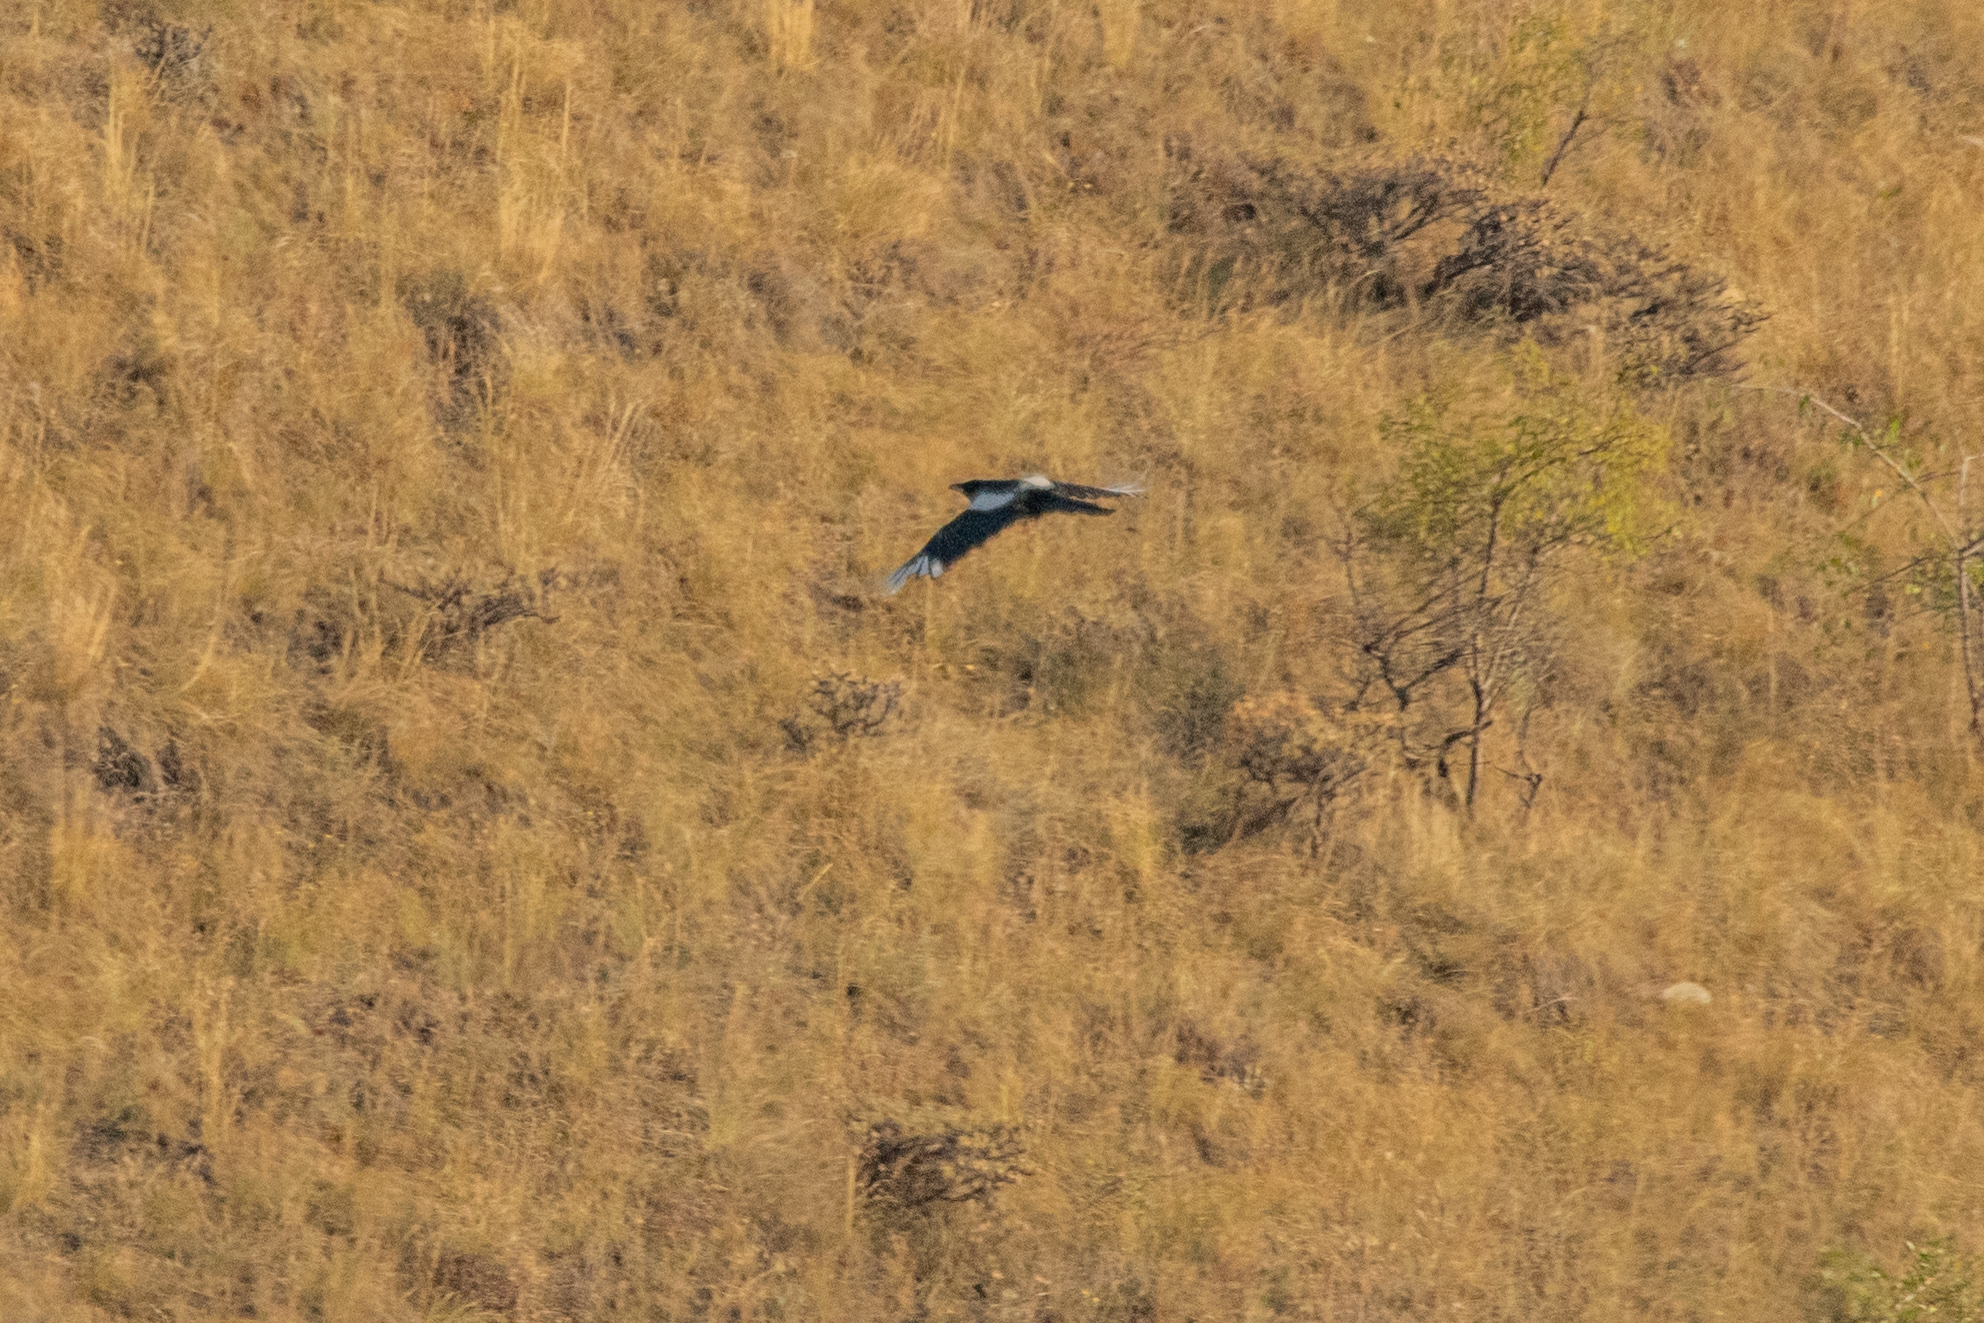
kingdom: Animalia
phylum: Chordata
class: Aves
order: Passeriformes
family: Corvidae
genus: Pica
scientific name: Pica pica
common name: Eurasian magpie
